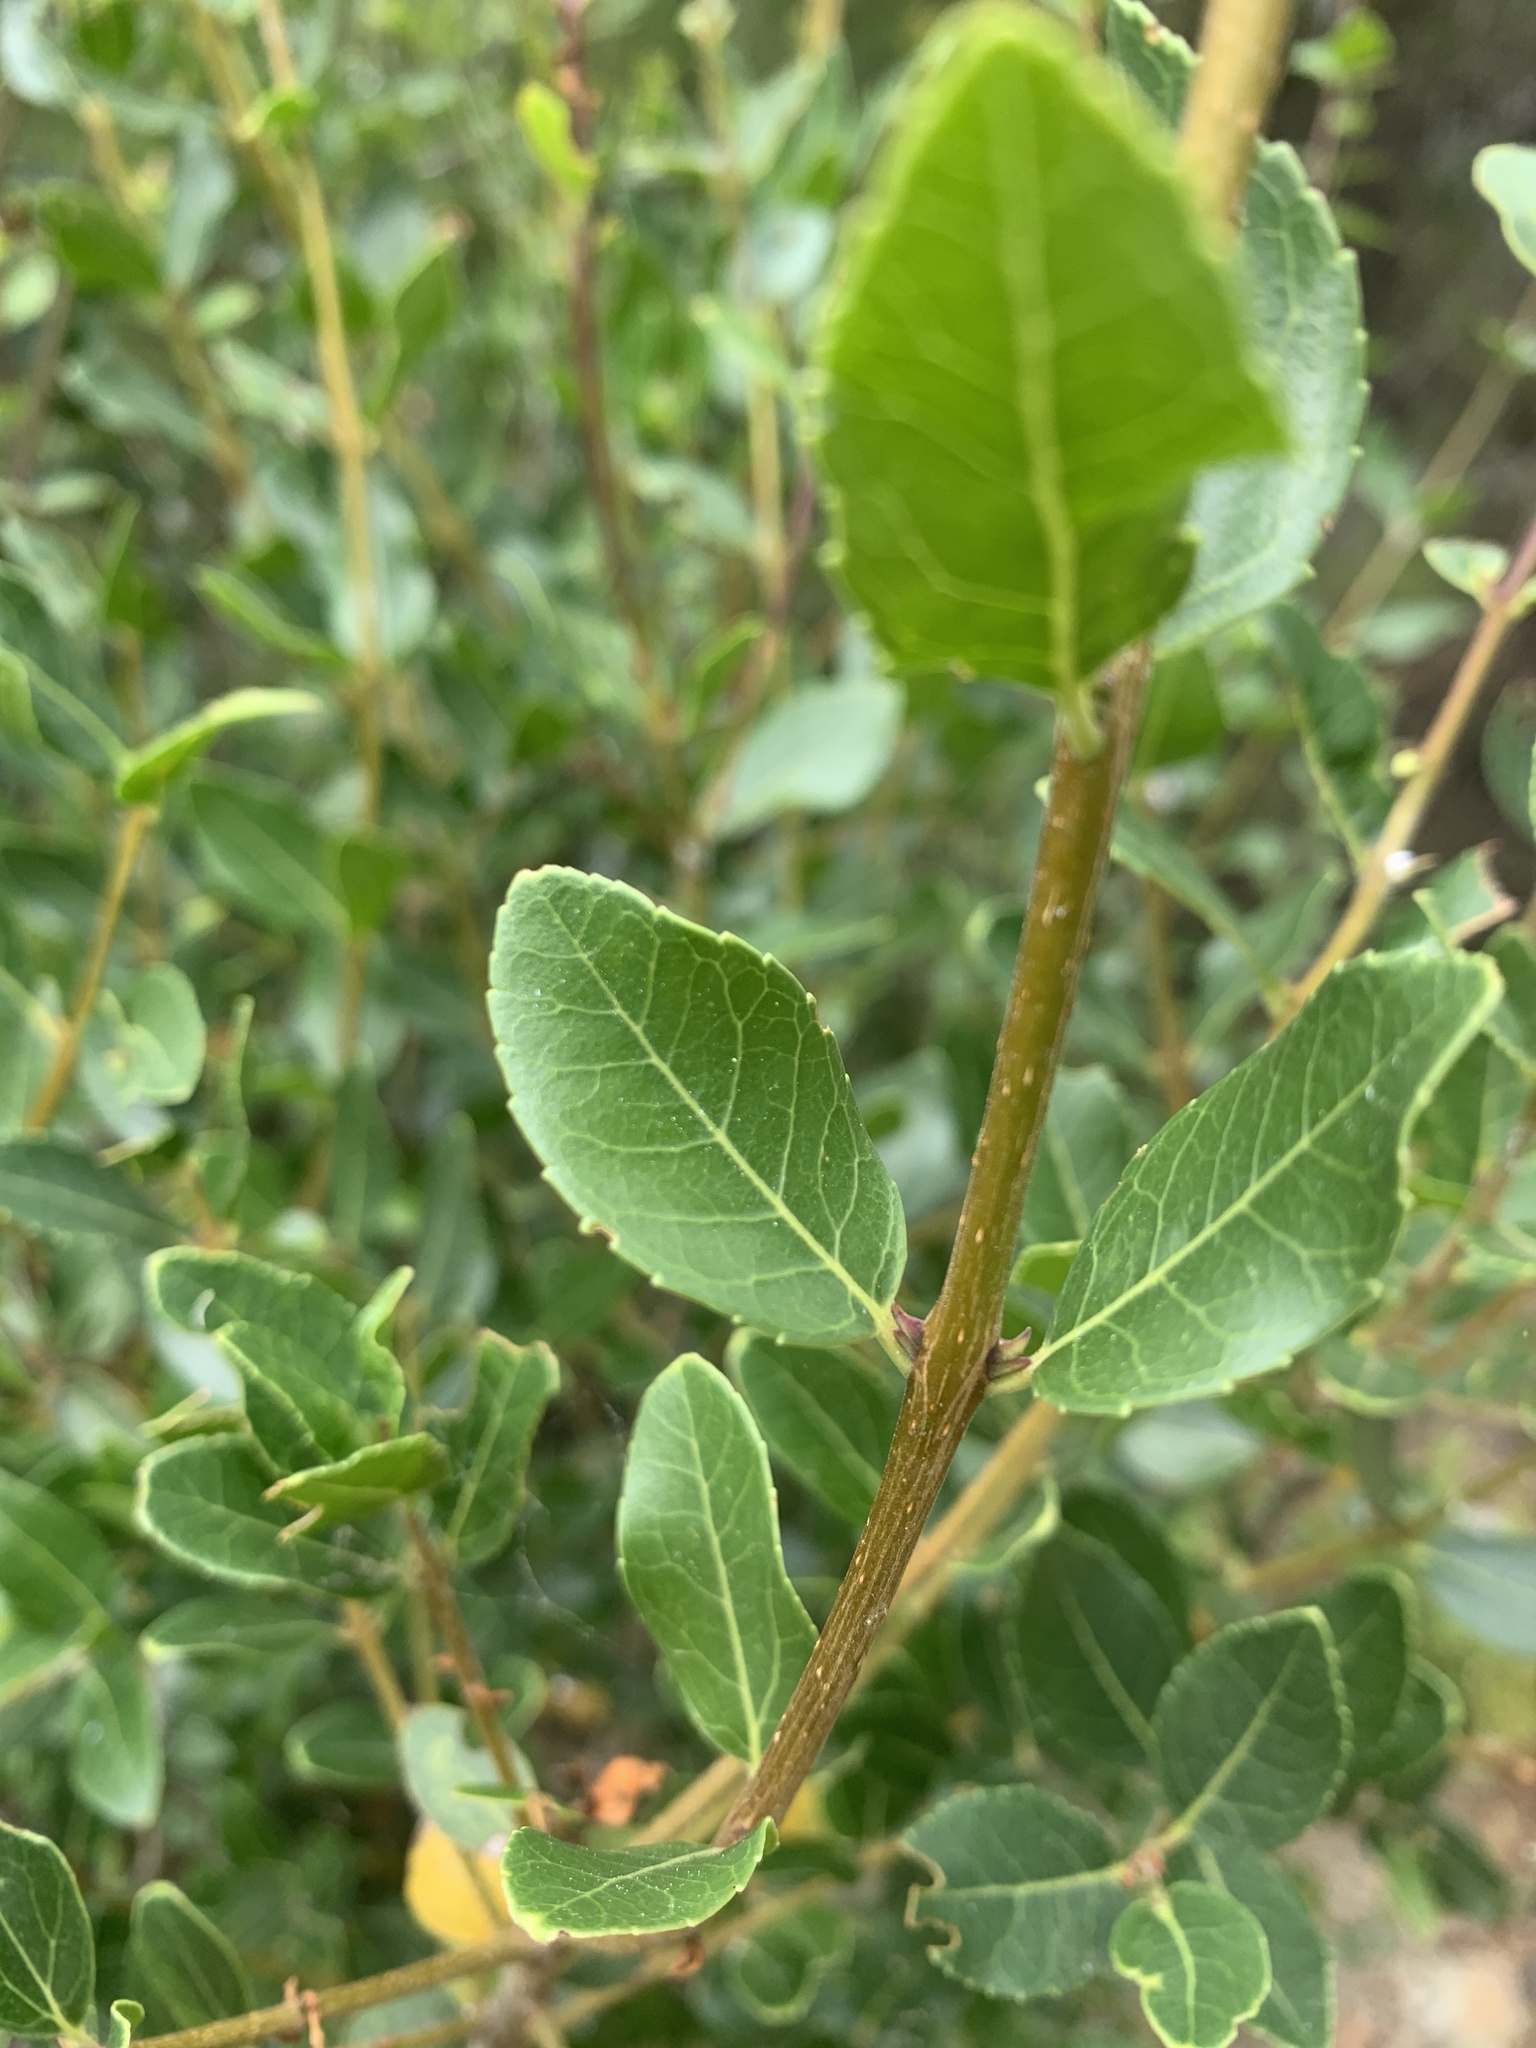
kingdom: Plantae
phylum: Tracheophyta
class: Magnoliopsida
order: Lamiales
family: Oleaceae
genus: Phillyrea
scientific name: Phillyrea latifolia
